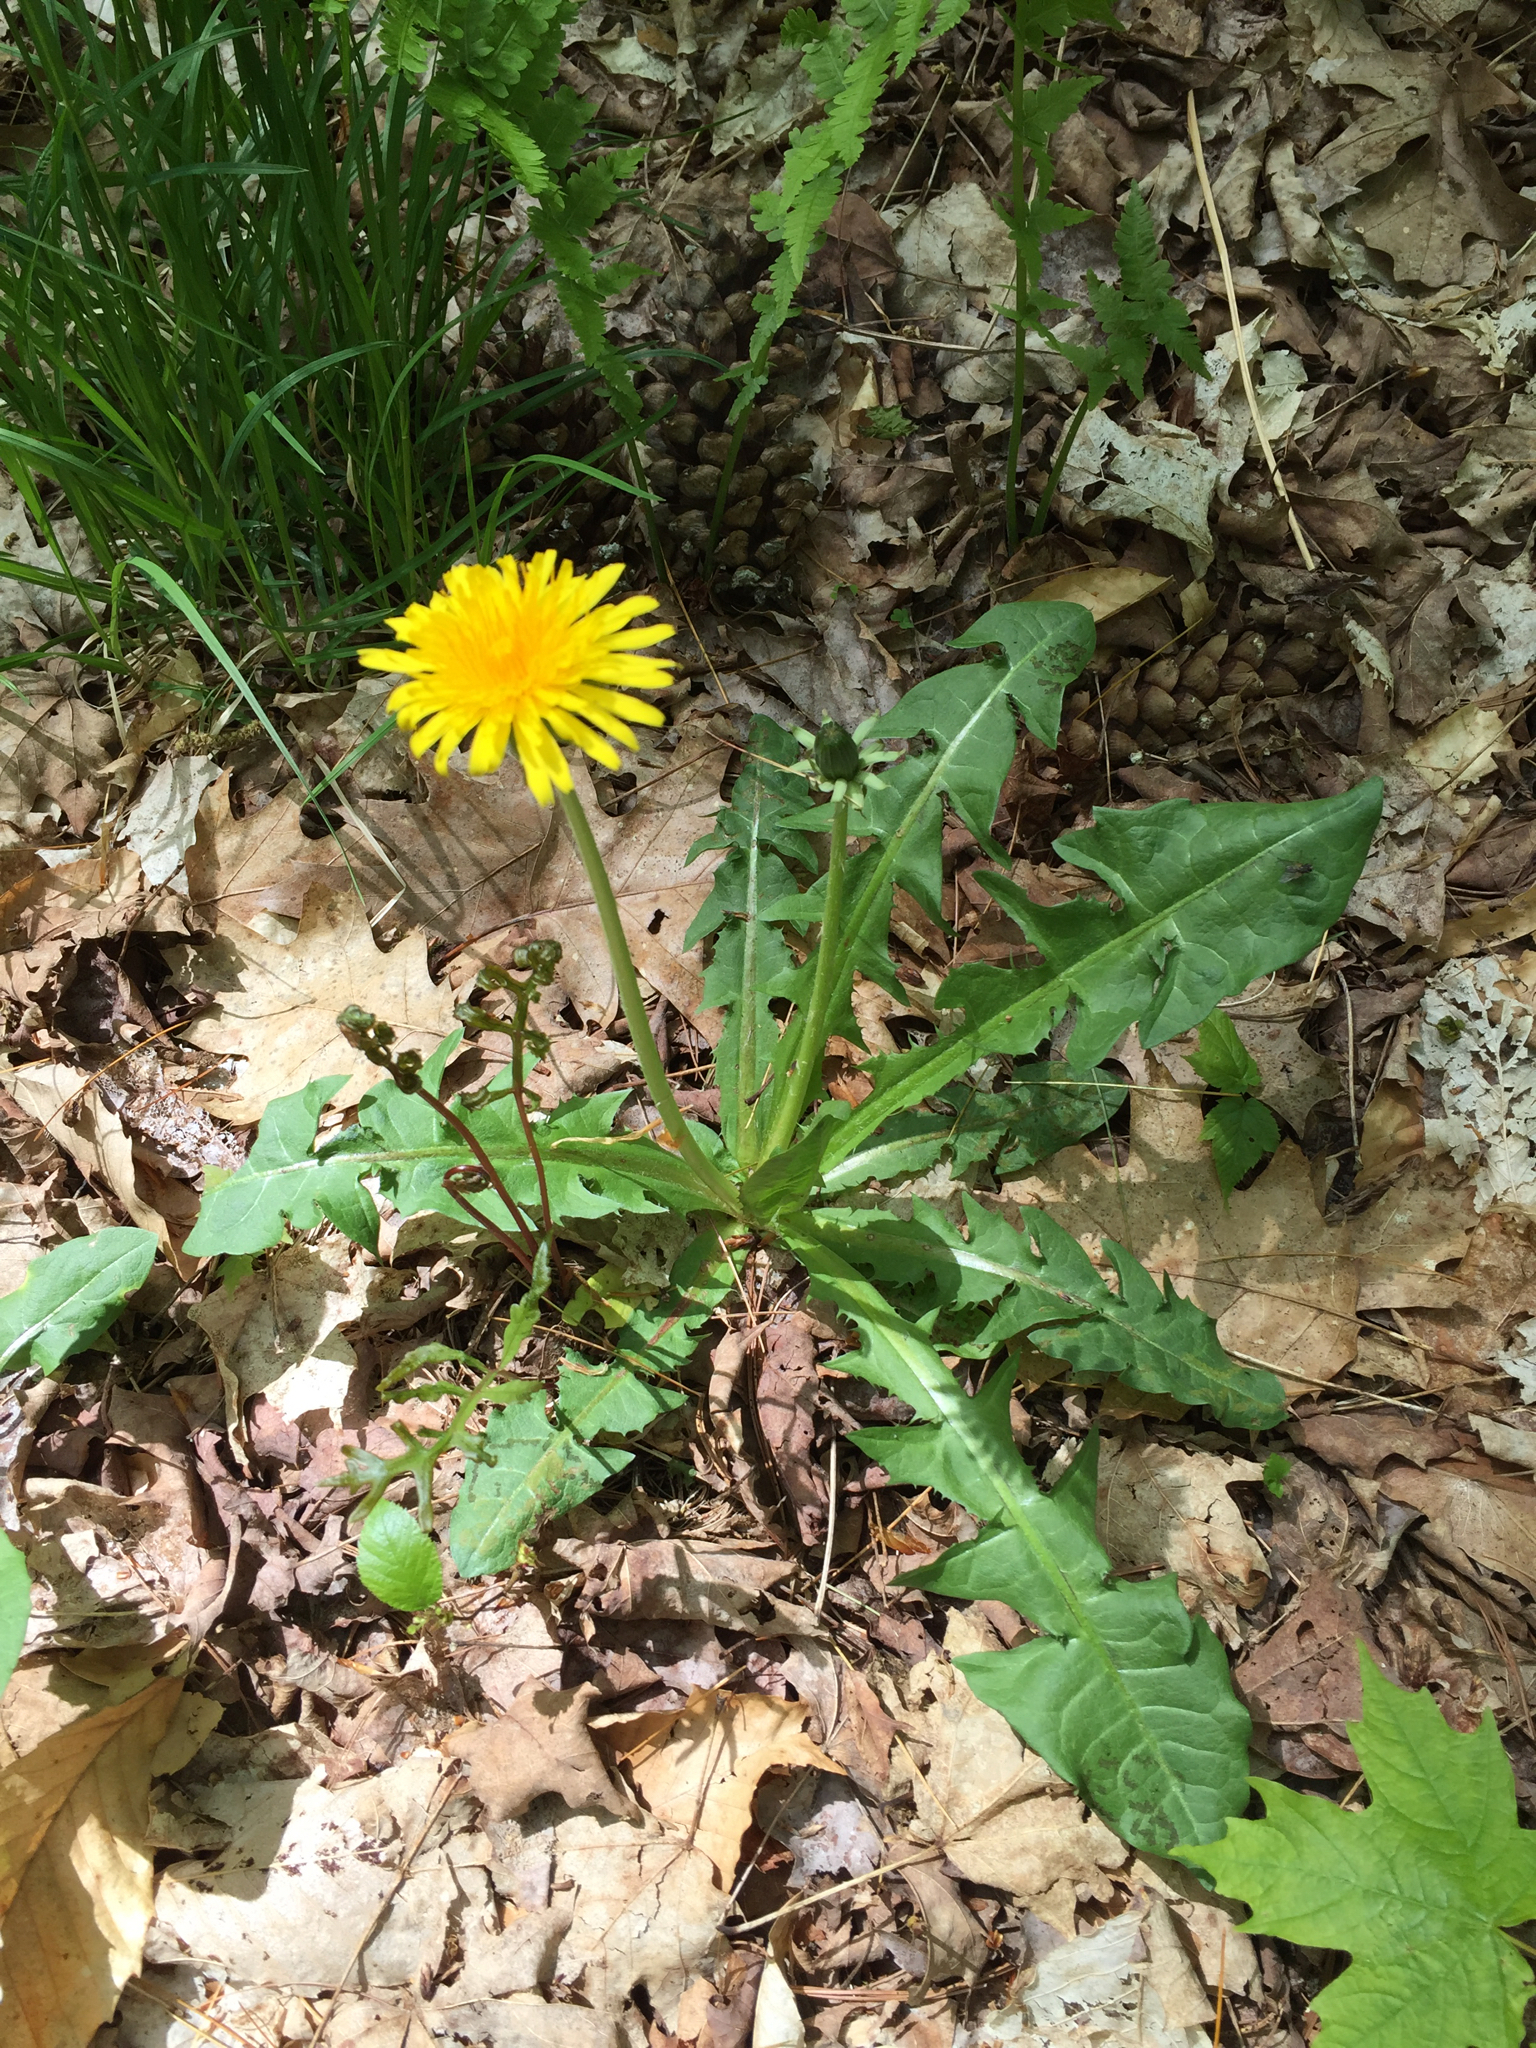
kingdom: Plantae
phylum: Tracheophyta
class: Magnoliopsida
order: Asterales
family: Asteraceae
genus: Taraxacum
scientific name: Taraxacum officinale
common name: Common dandelion
